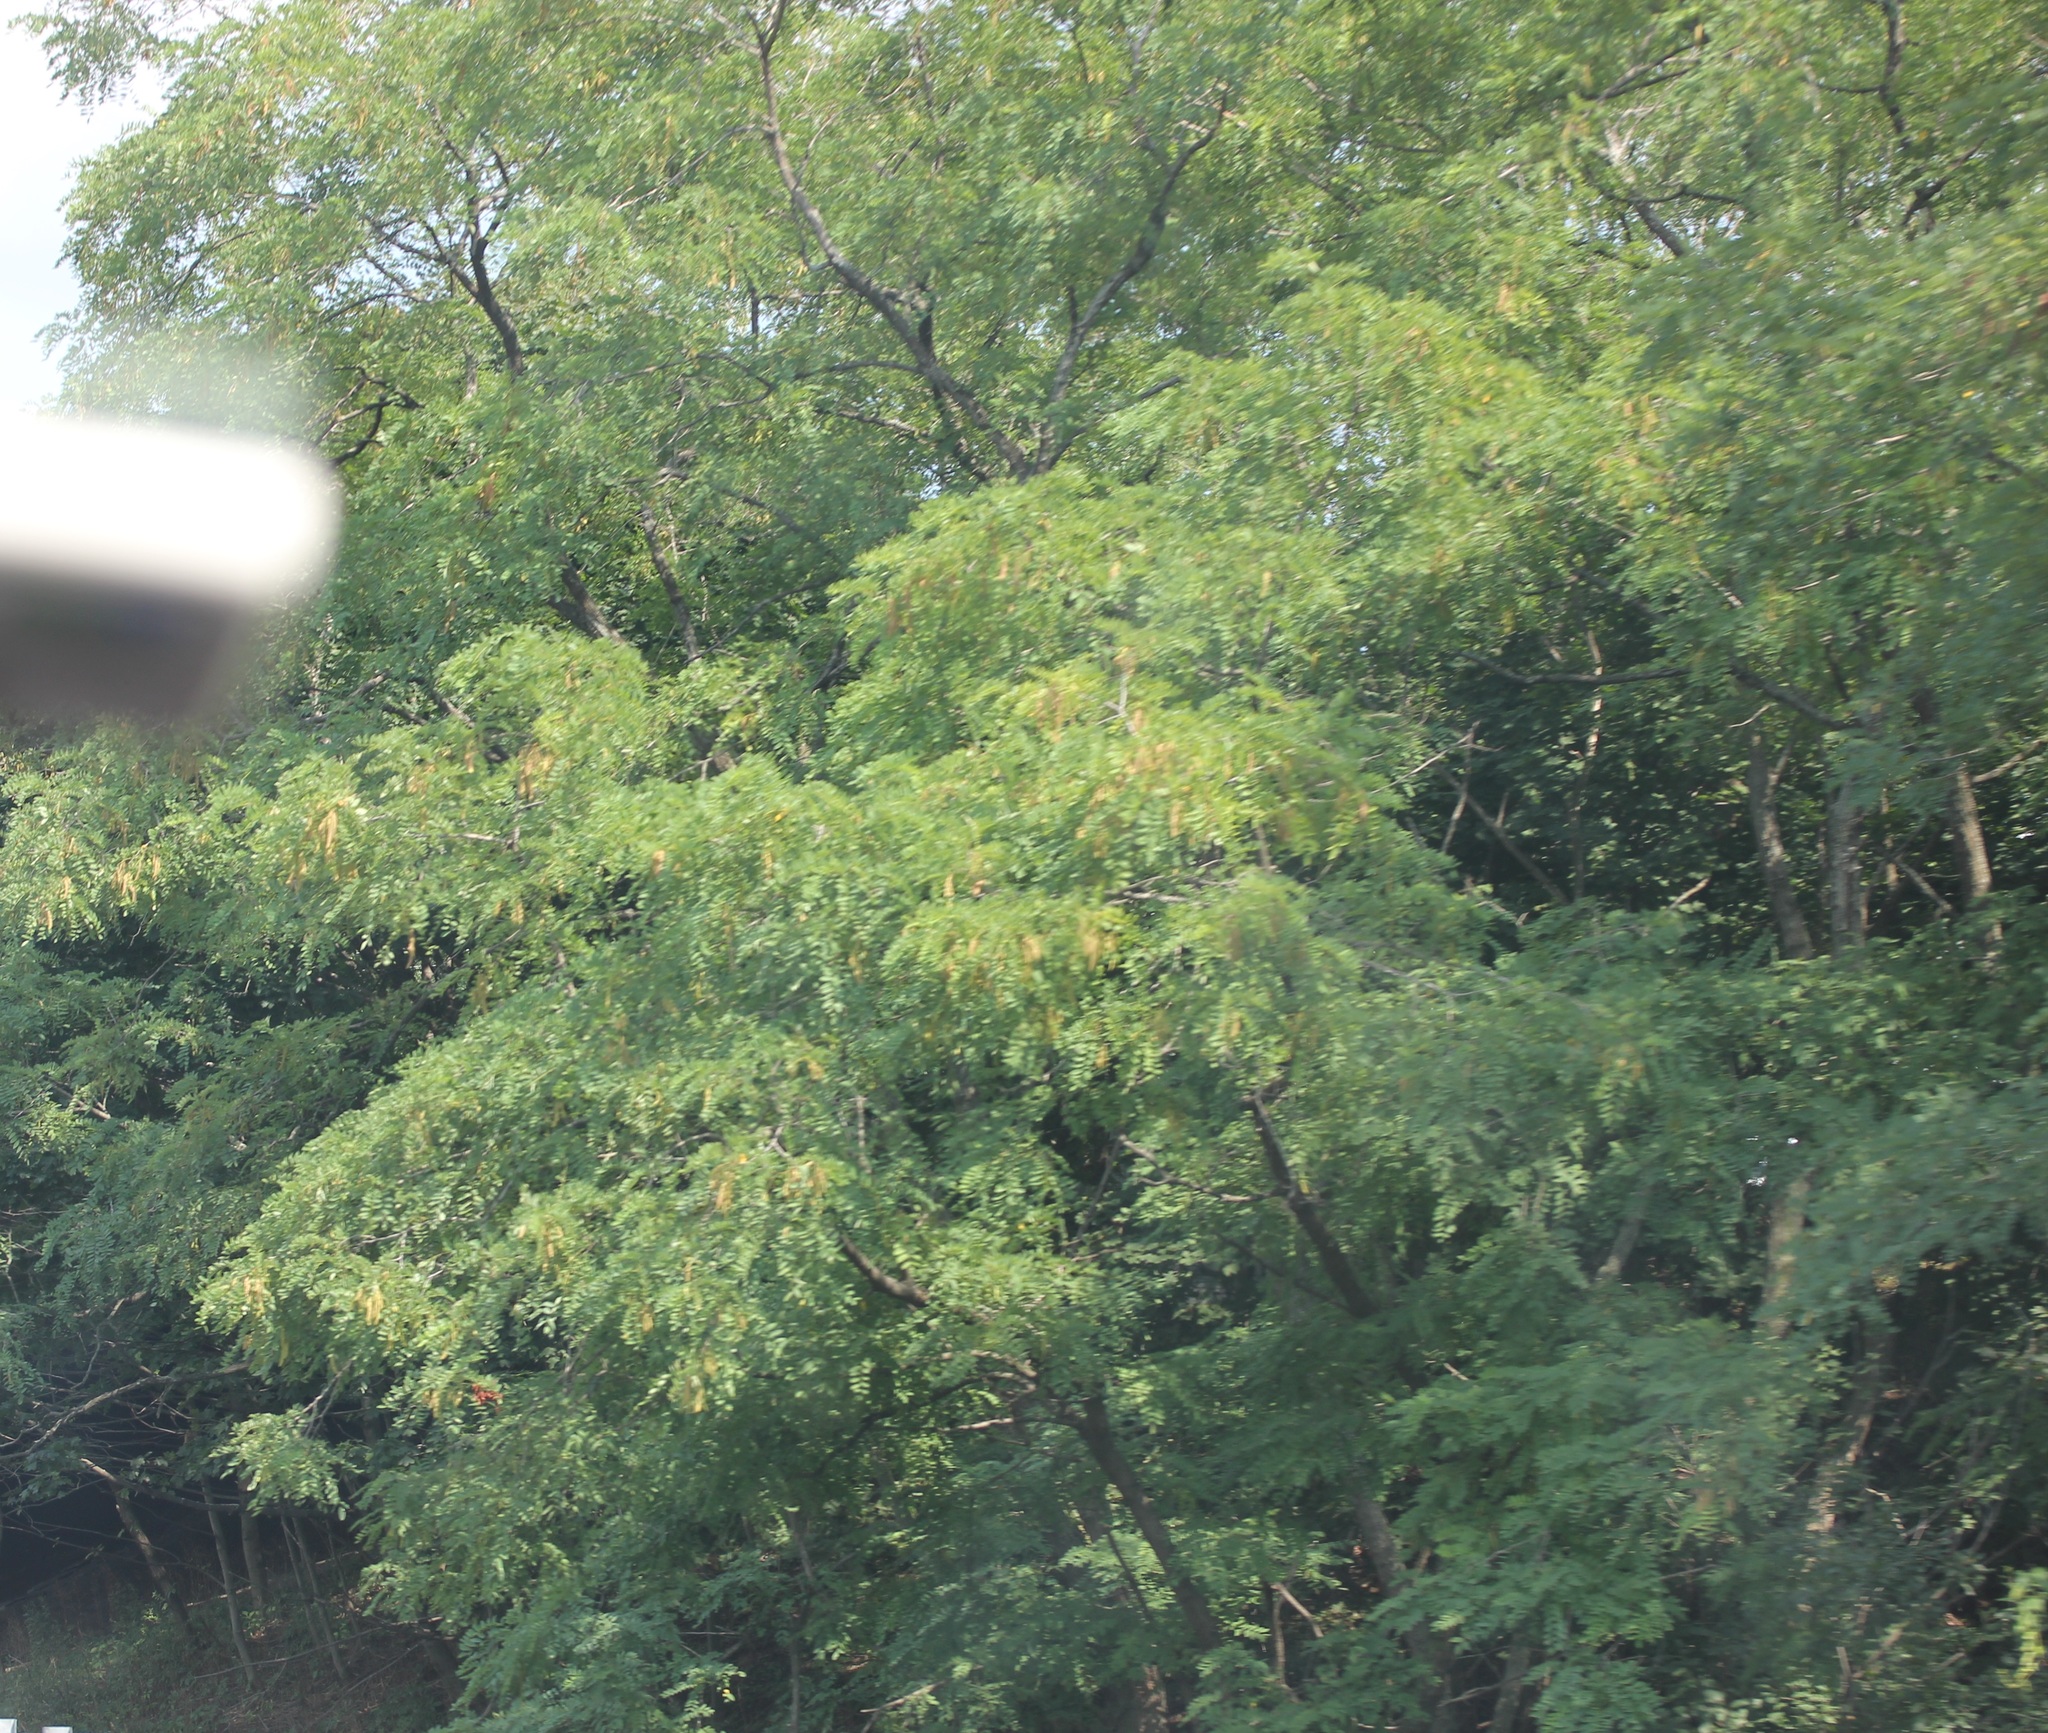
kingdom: Plantae
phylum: Tracheophyta
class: Magnoliopsida
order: Fabales
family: Fabaceae
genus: Robinia
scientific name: Robinia pseudoacacia
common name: Black locust
